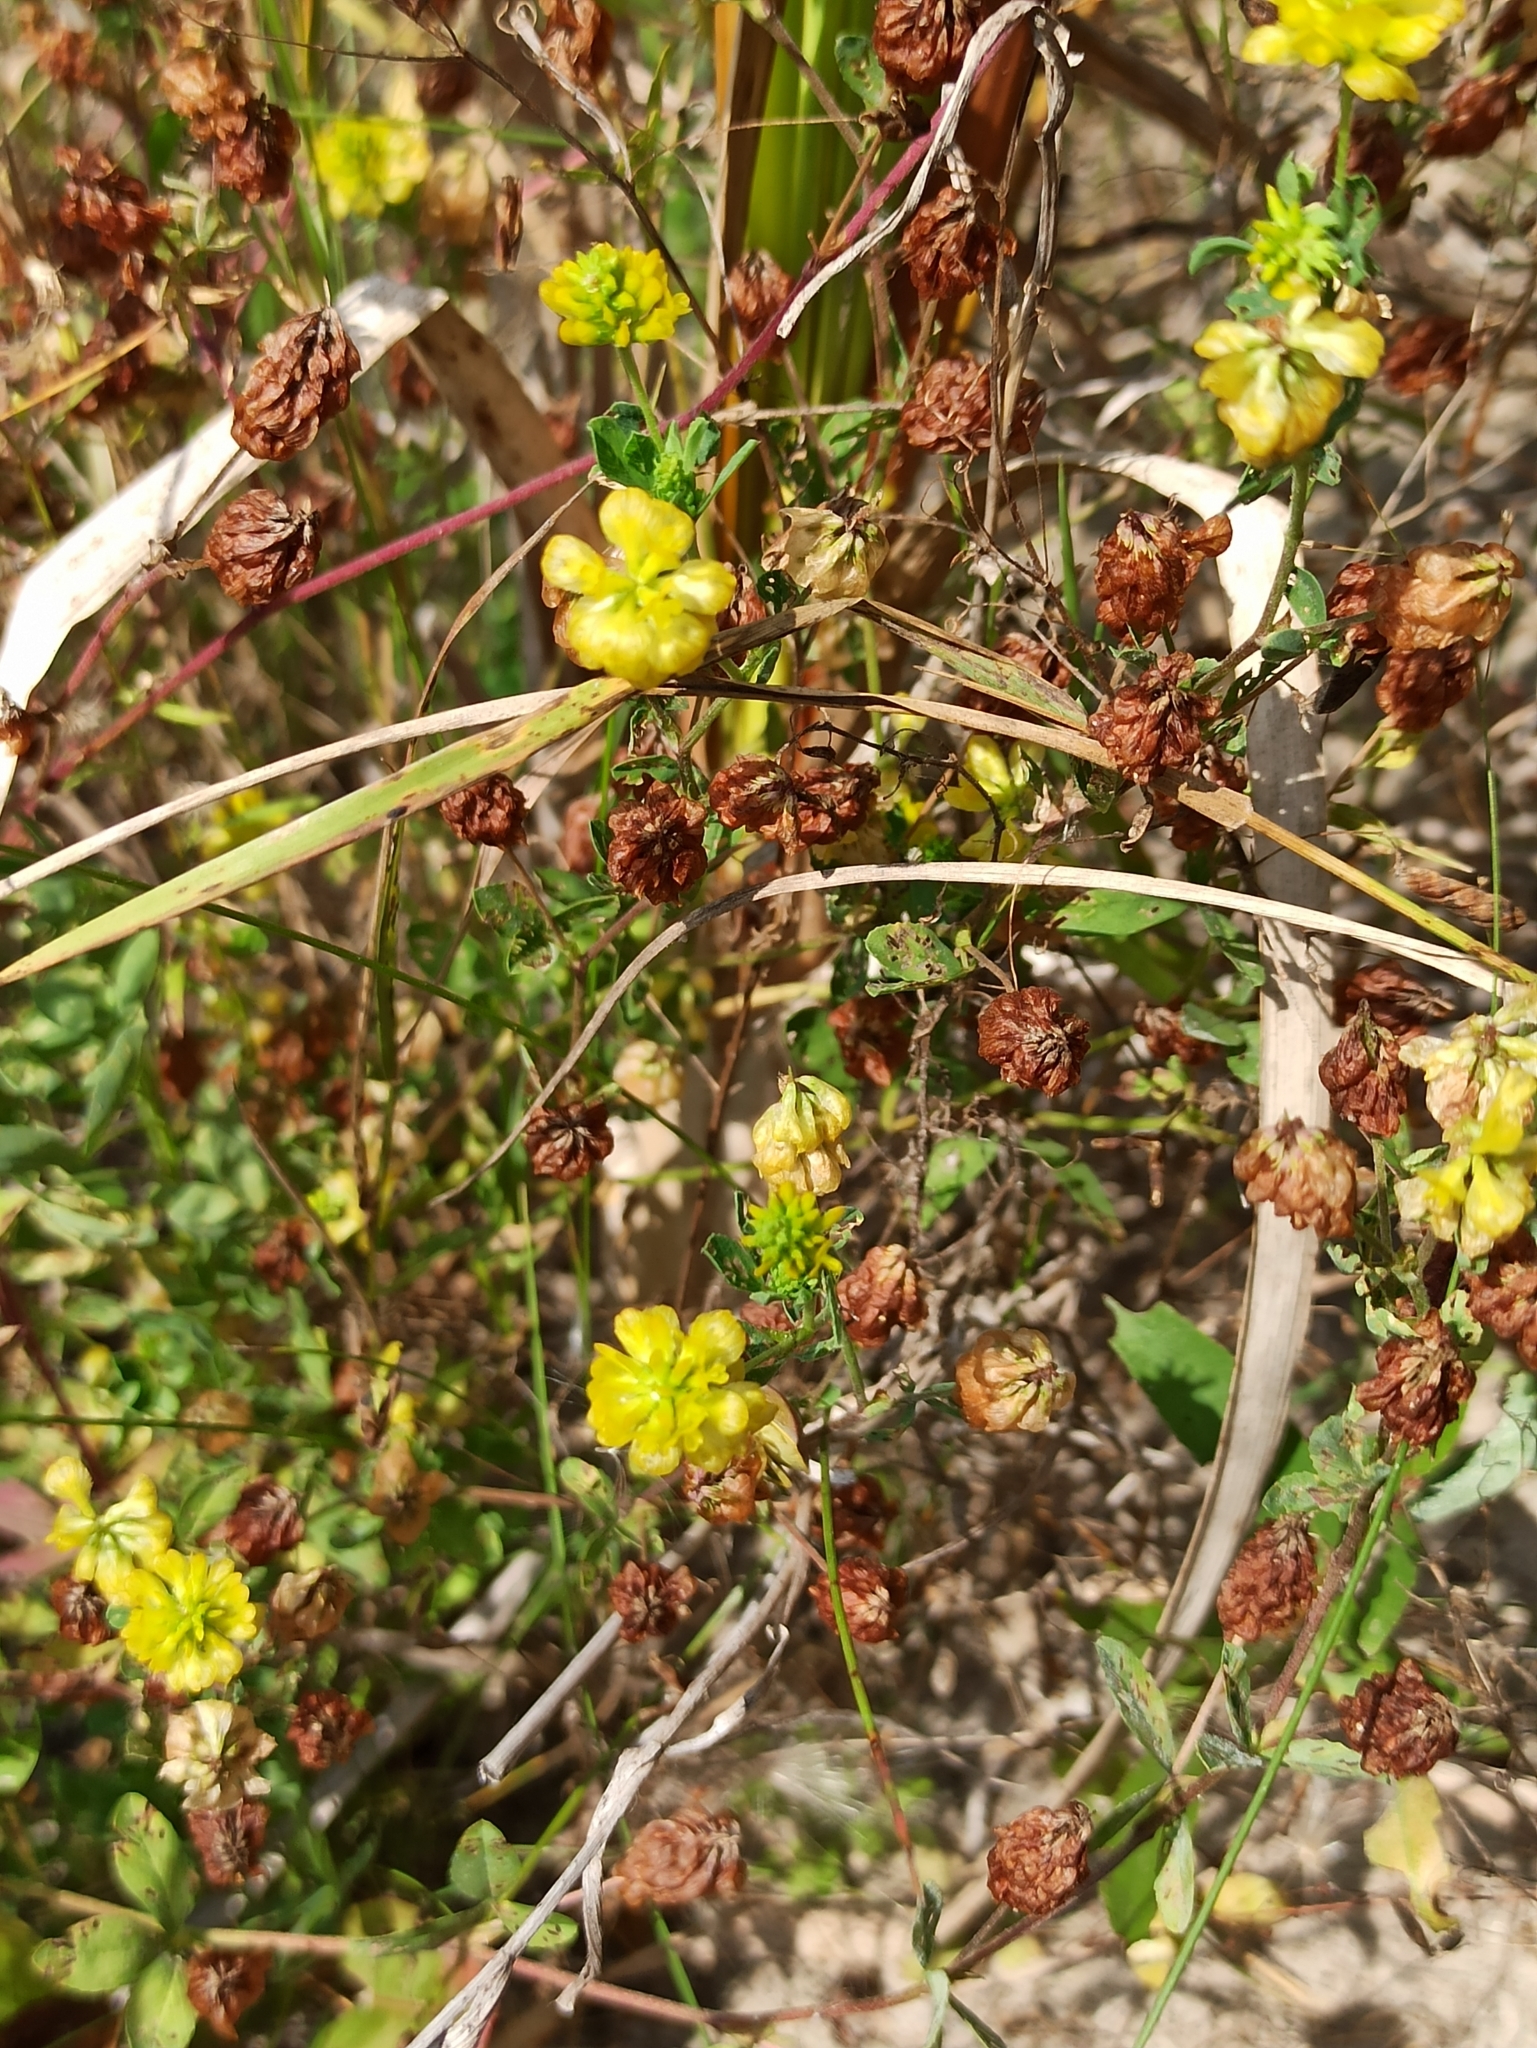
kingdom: Plantae
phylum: Tracheophyta
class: Magnoliopsida
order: Fabales
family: Fabaceae
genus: Trifolium
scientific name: Trifolium aureum
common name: Golden clover
